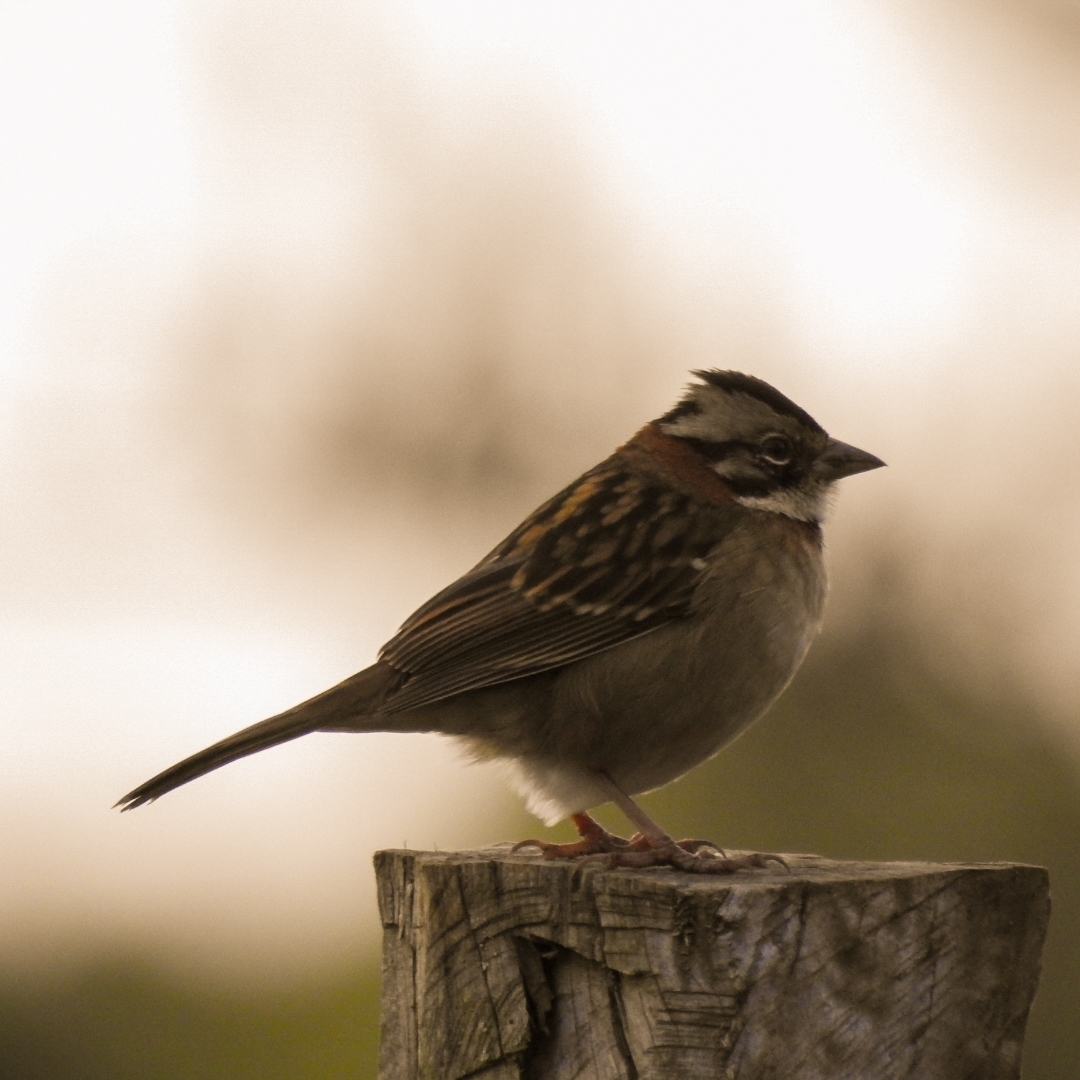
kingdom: Animalia
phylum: Chordata
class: Aves
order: Passeriformes
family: Passerellidae
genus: Zonotrichia
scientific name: Zonotrichia capensis
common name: Rufous-collared sparrow
